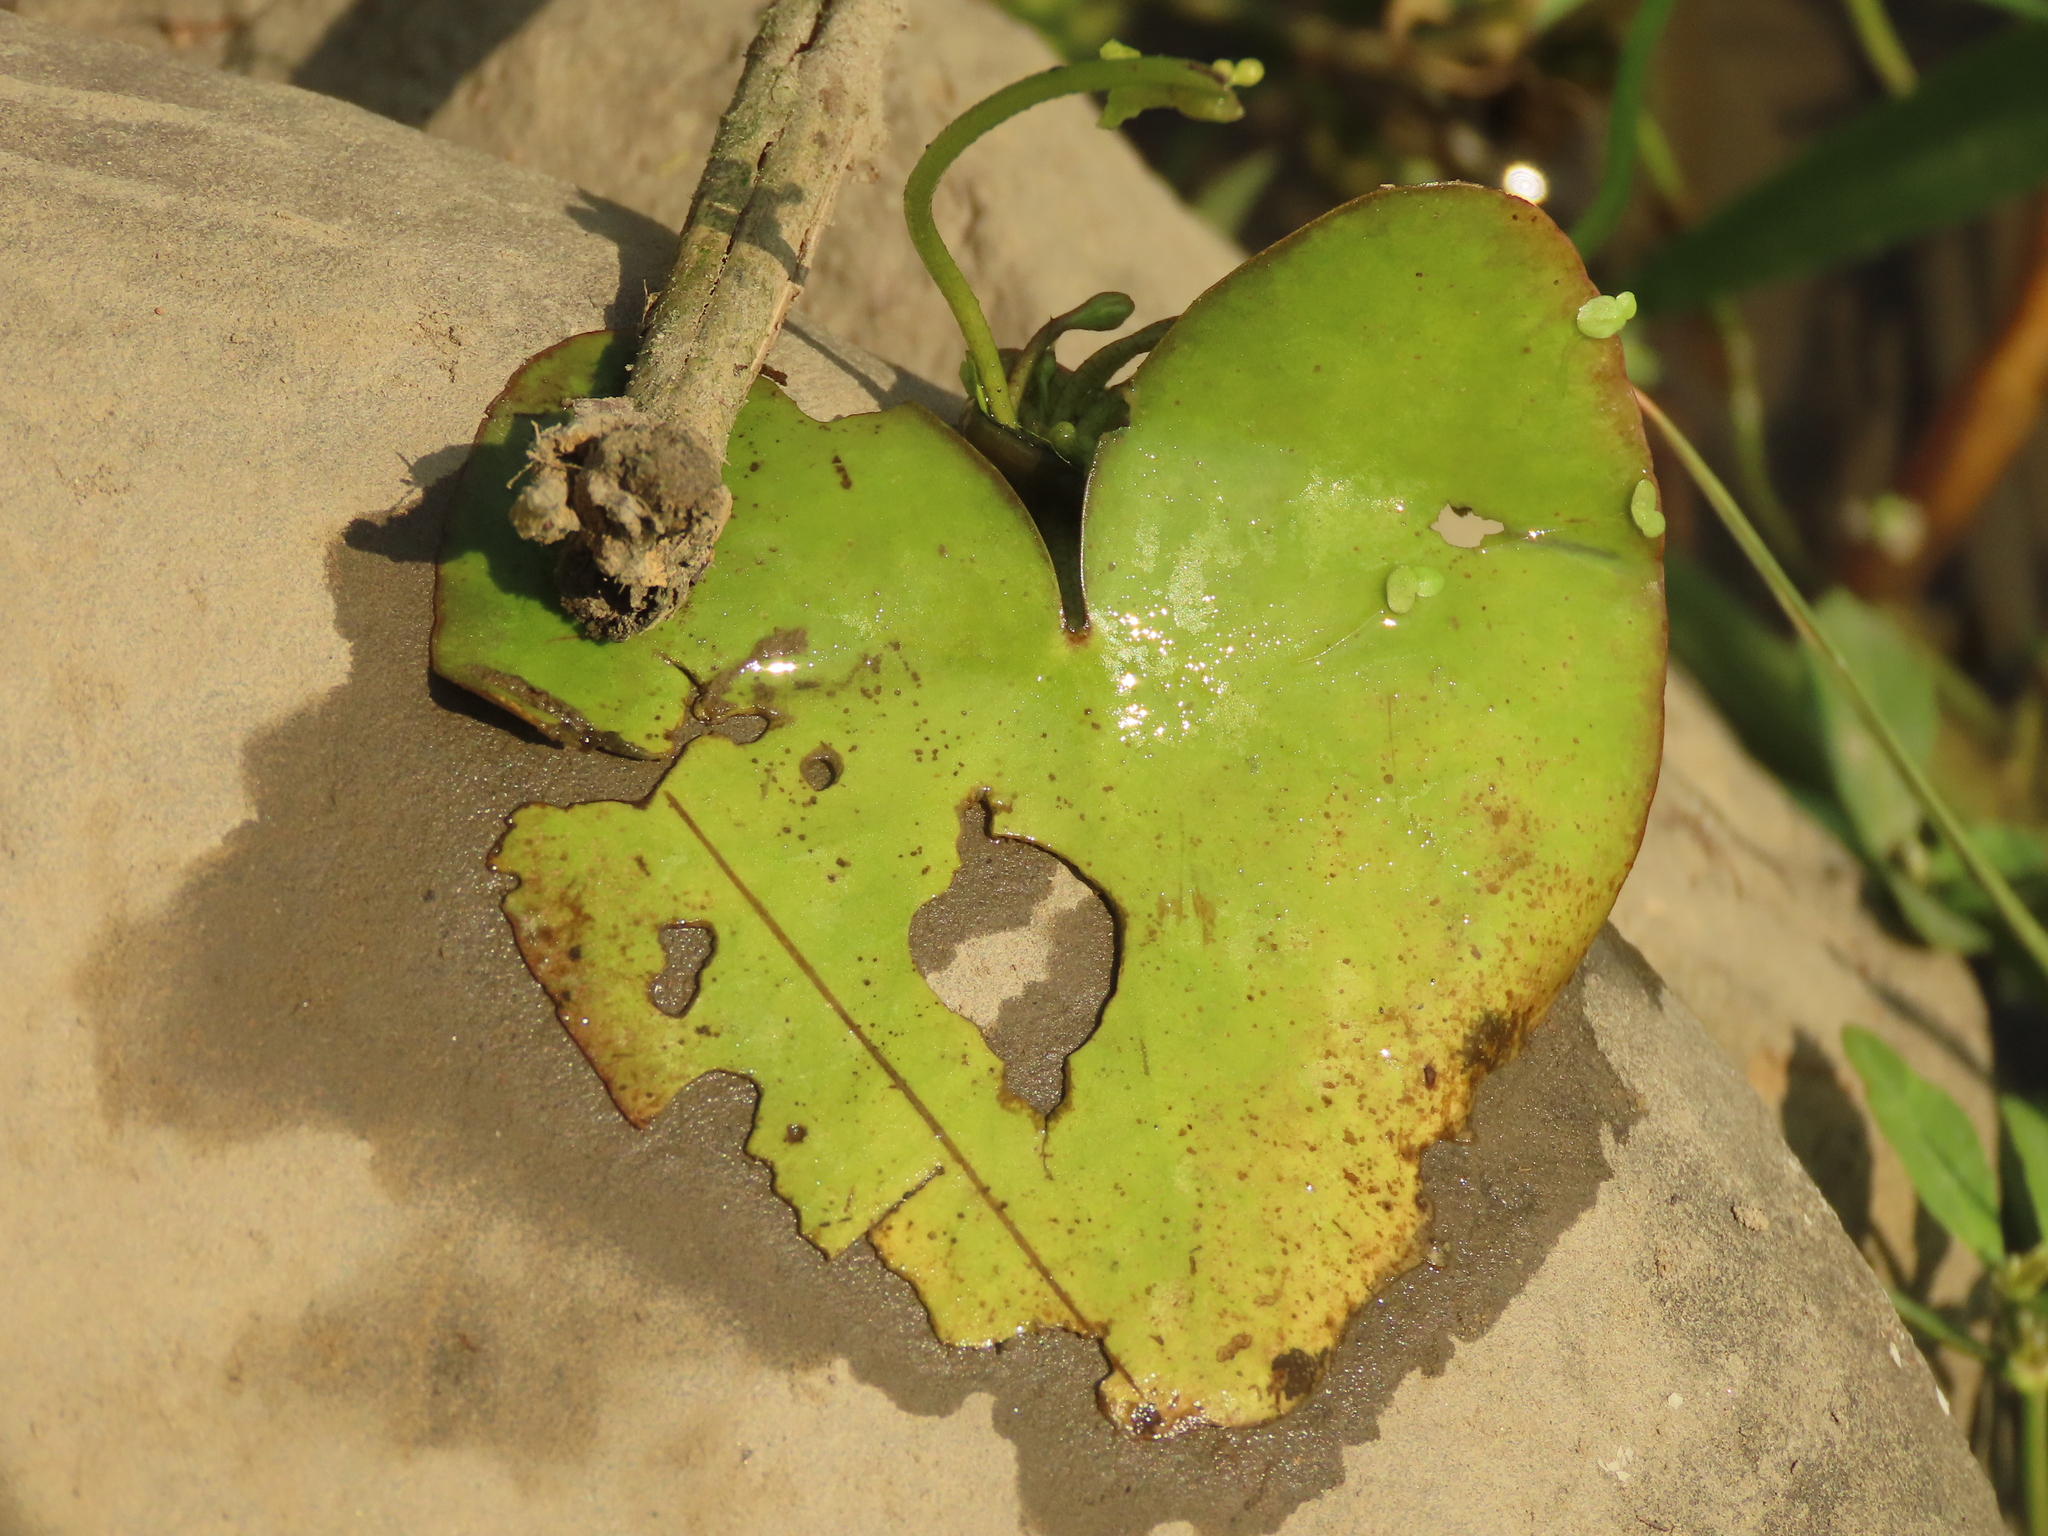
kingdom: Plantae
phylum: Tracheophyta
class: Magnoliopsida
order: Asterales
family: Menyanthaceae
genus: Nymphoides
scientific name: Nymphoides hydrophylla
